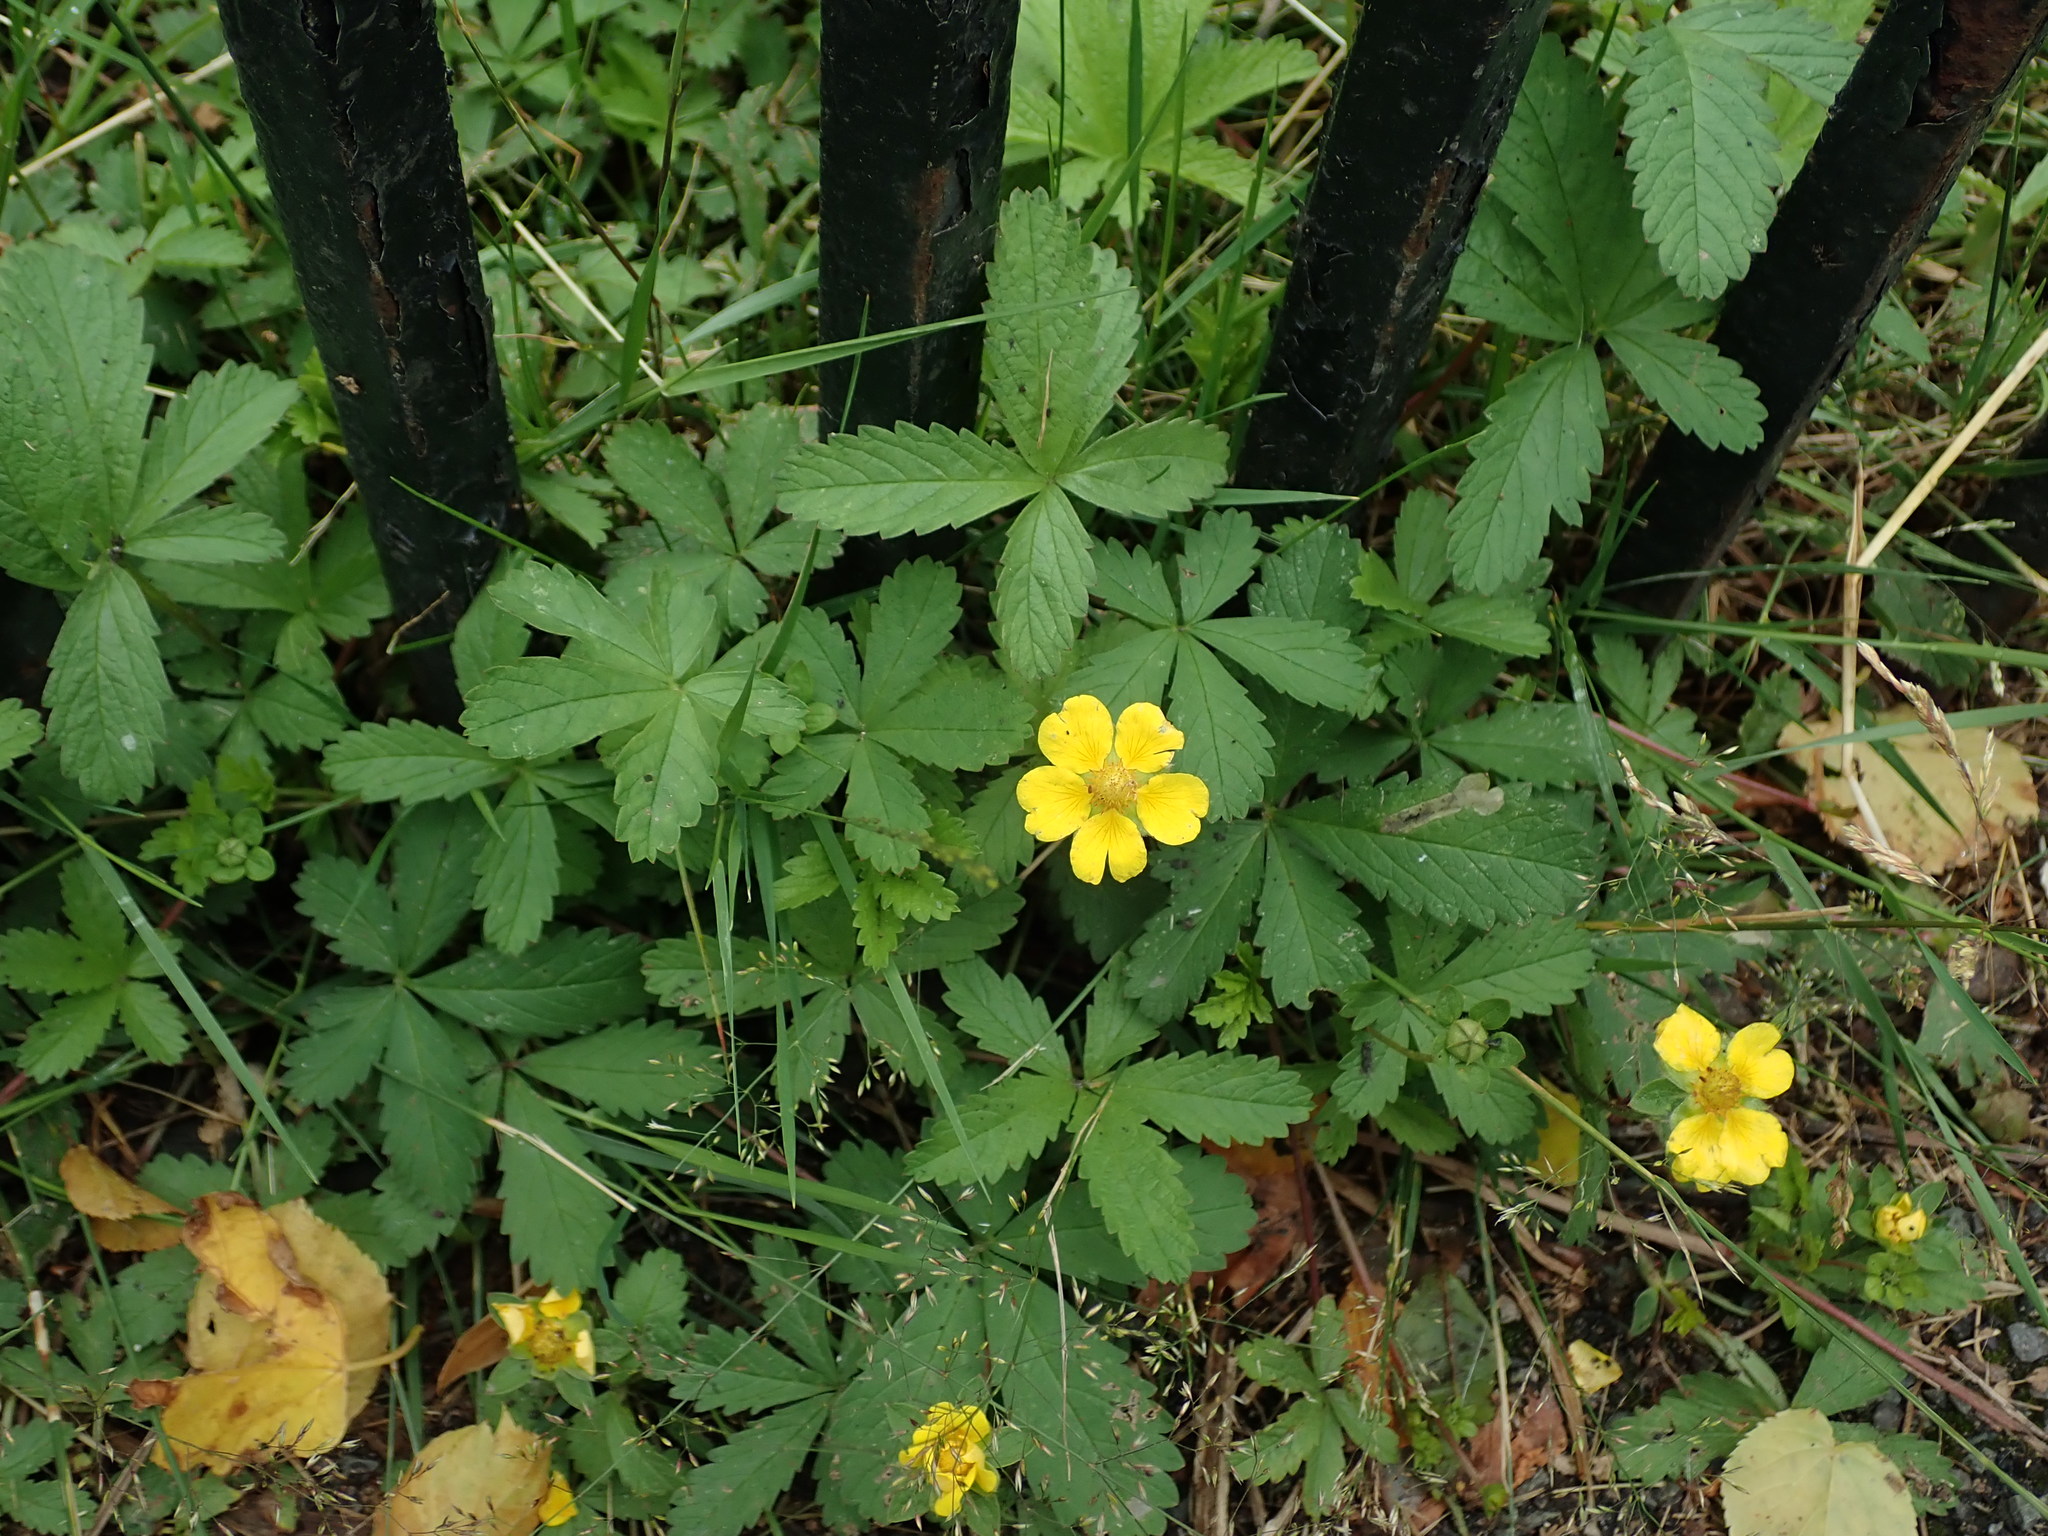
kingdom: Plantae
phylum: Tracheophyta
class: Magnoliopsida
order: Rosales
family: Rosaceae
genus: Potentilla
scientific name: Potentilla reptans
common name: Creeping cinquefoil
